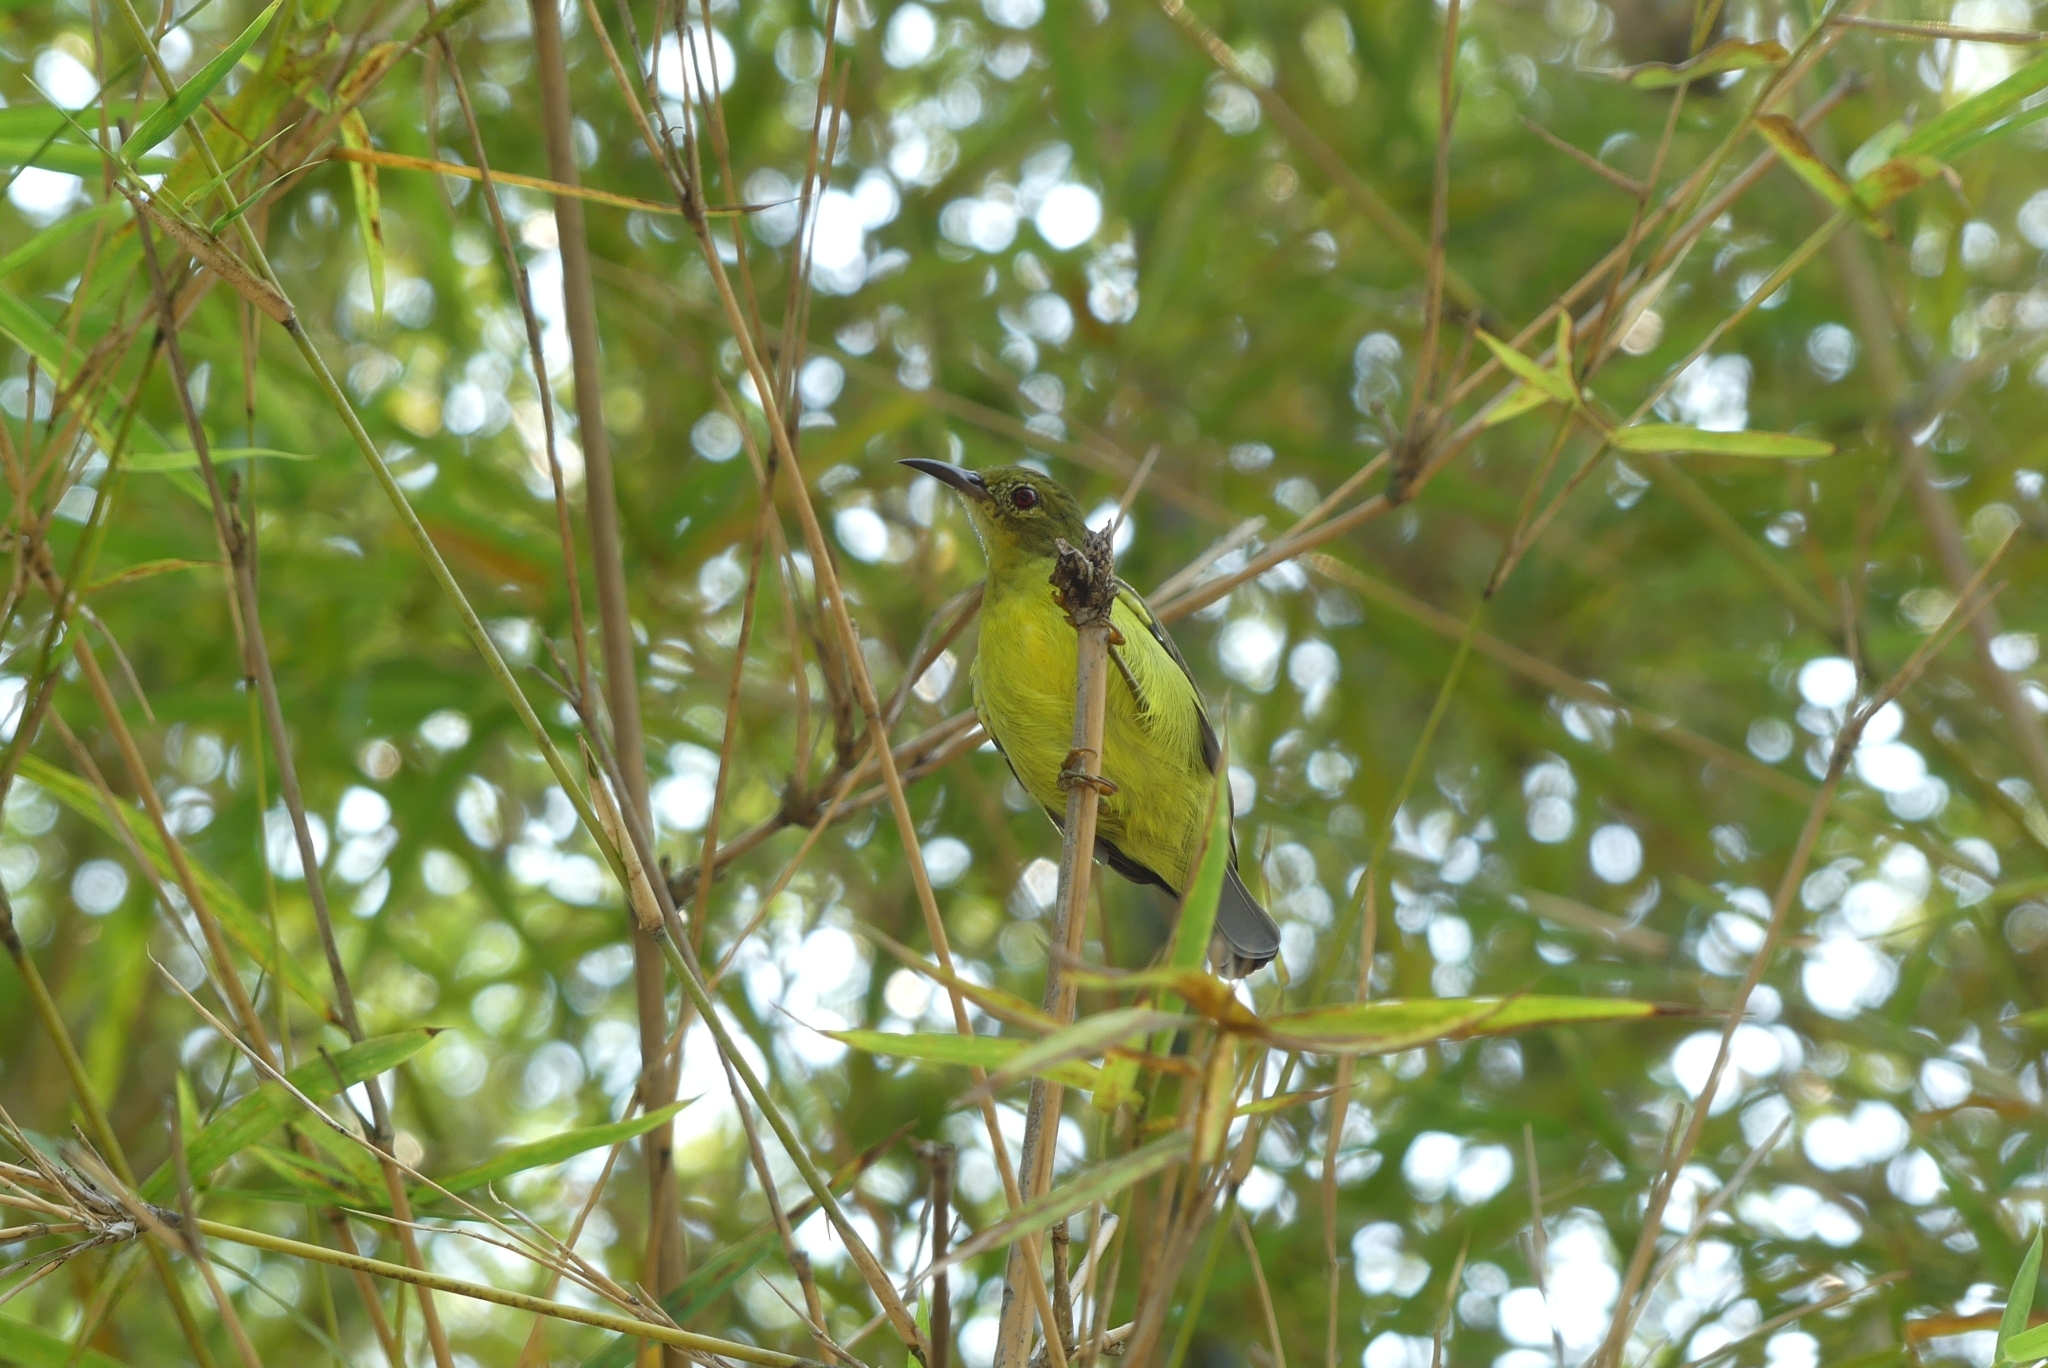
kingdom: Animalia
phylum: Chordata
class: Aves
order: Passeriformes
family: Nectariniidae
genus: Anthreptes
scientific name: Anthreptes malacensis
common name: Brown-throated sunbird
